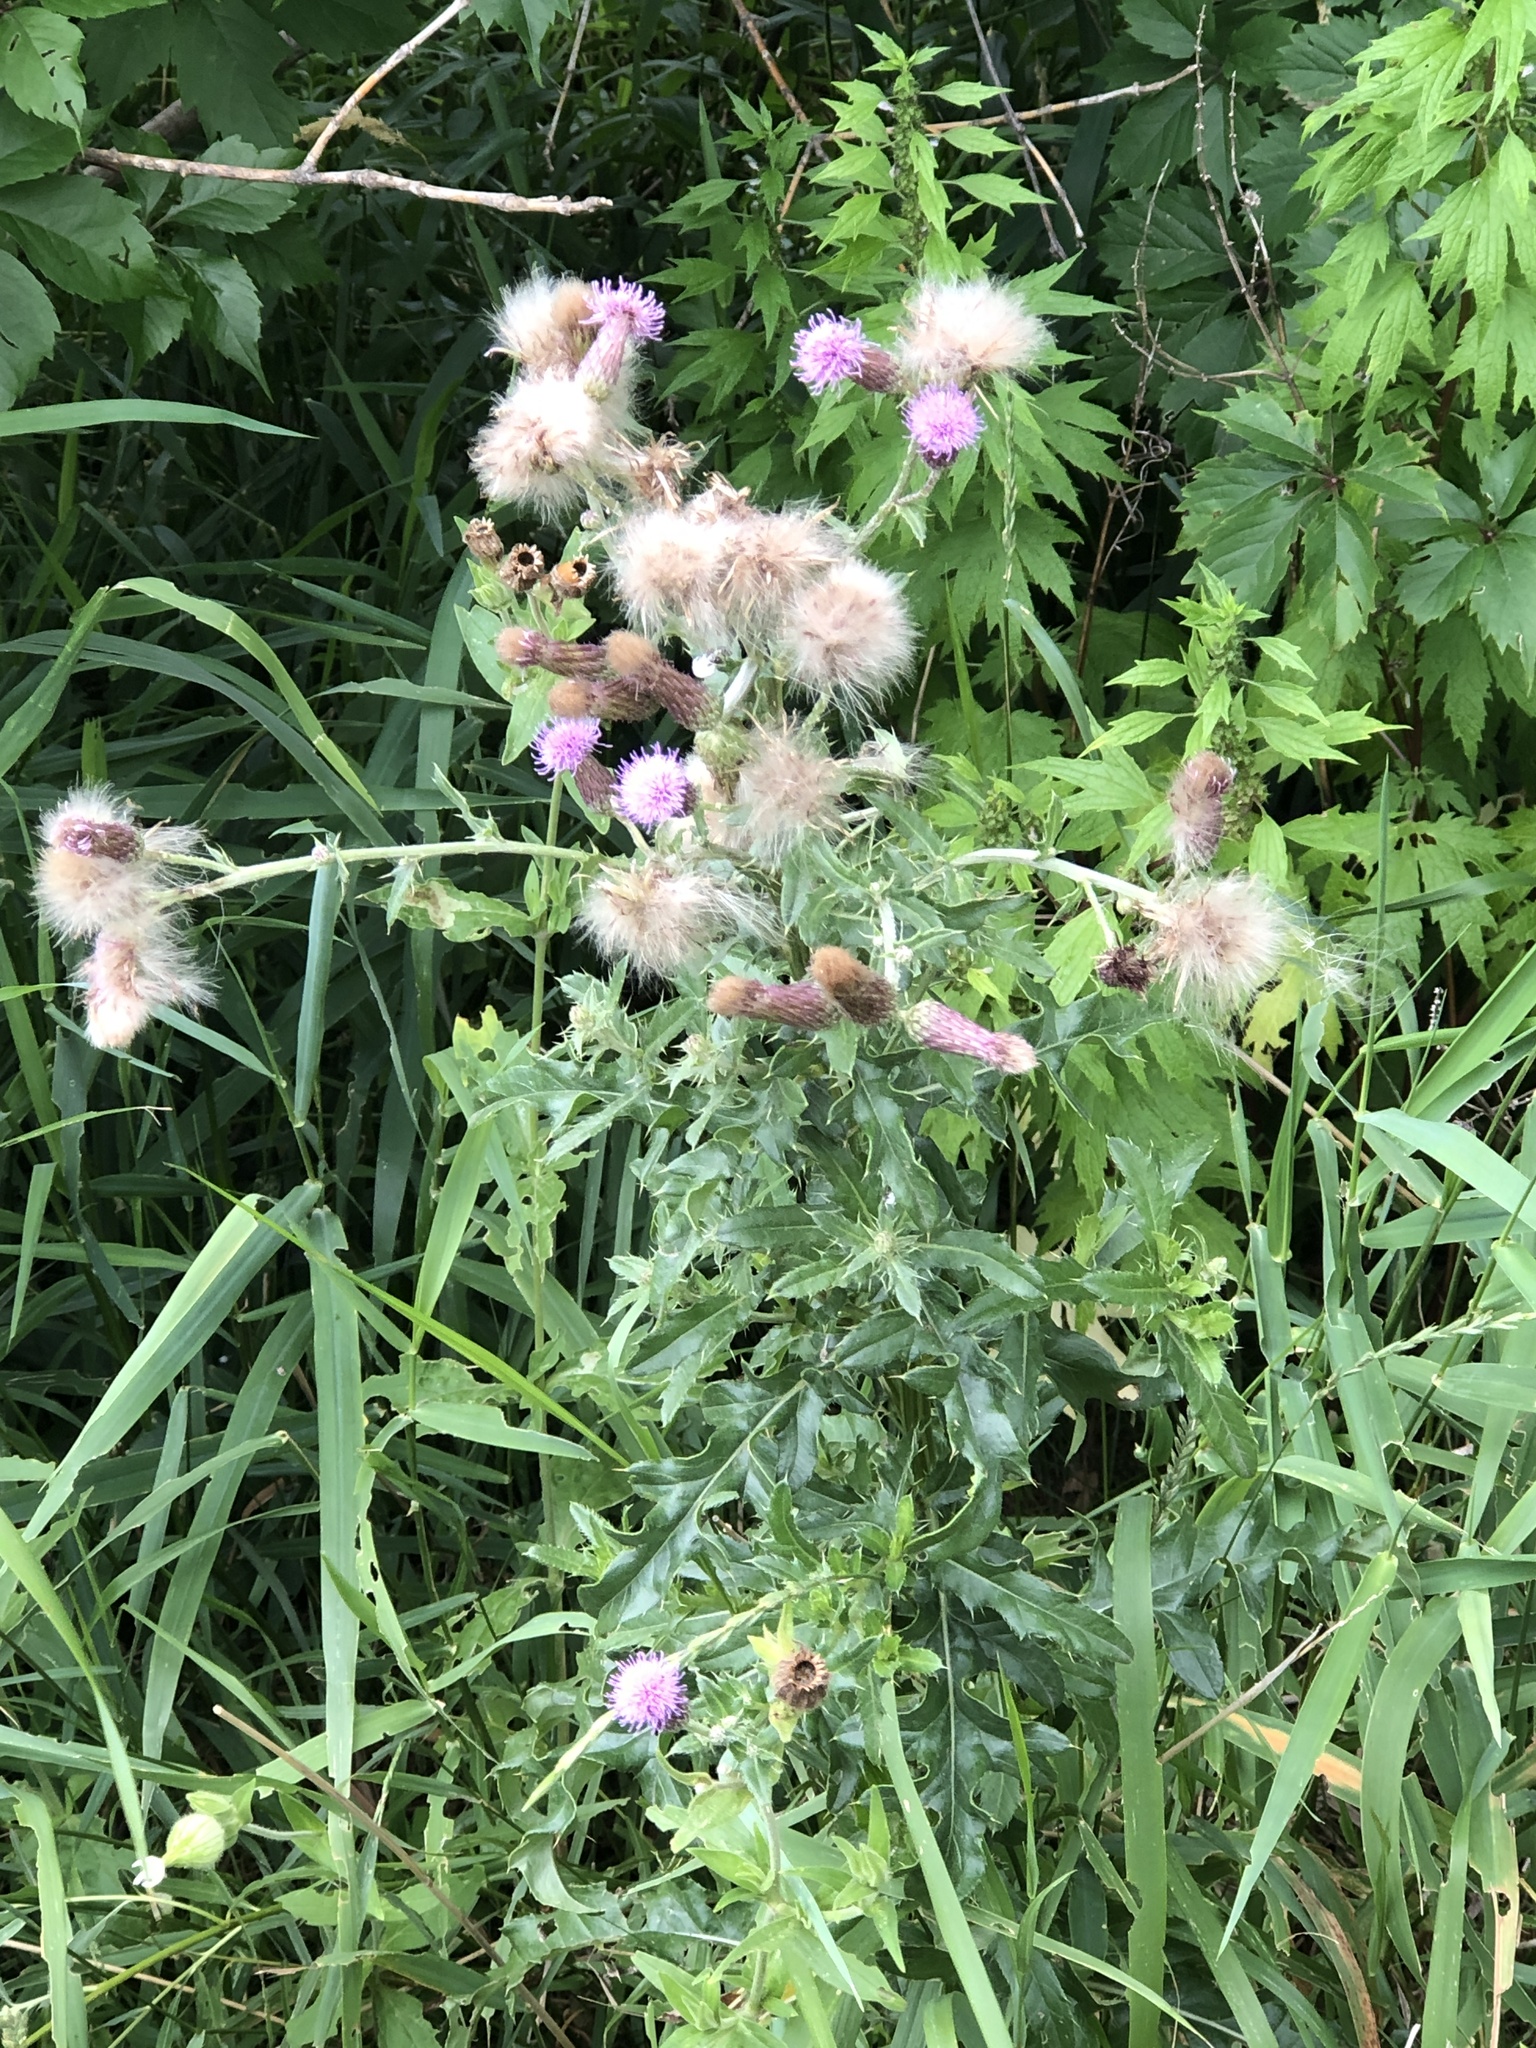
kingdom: Plantae
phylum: Tracheophyta
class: Magnoliopsida
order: Asterales
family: Asteraceae
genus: Cirsium
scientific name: Cirsium arvense
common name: Creeping thistle
